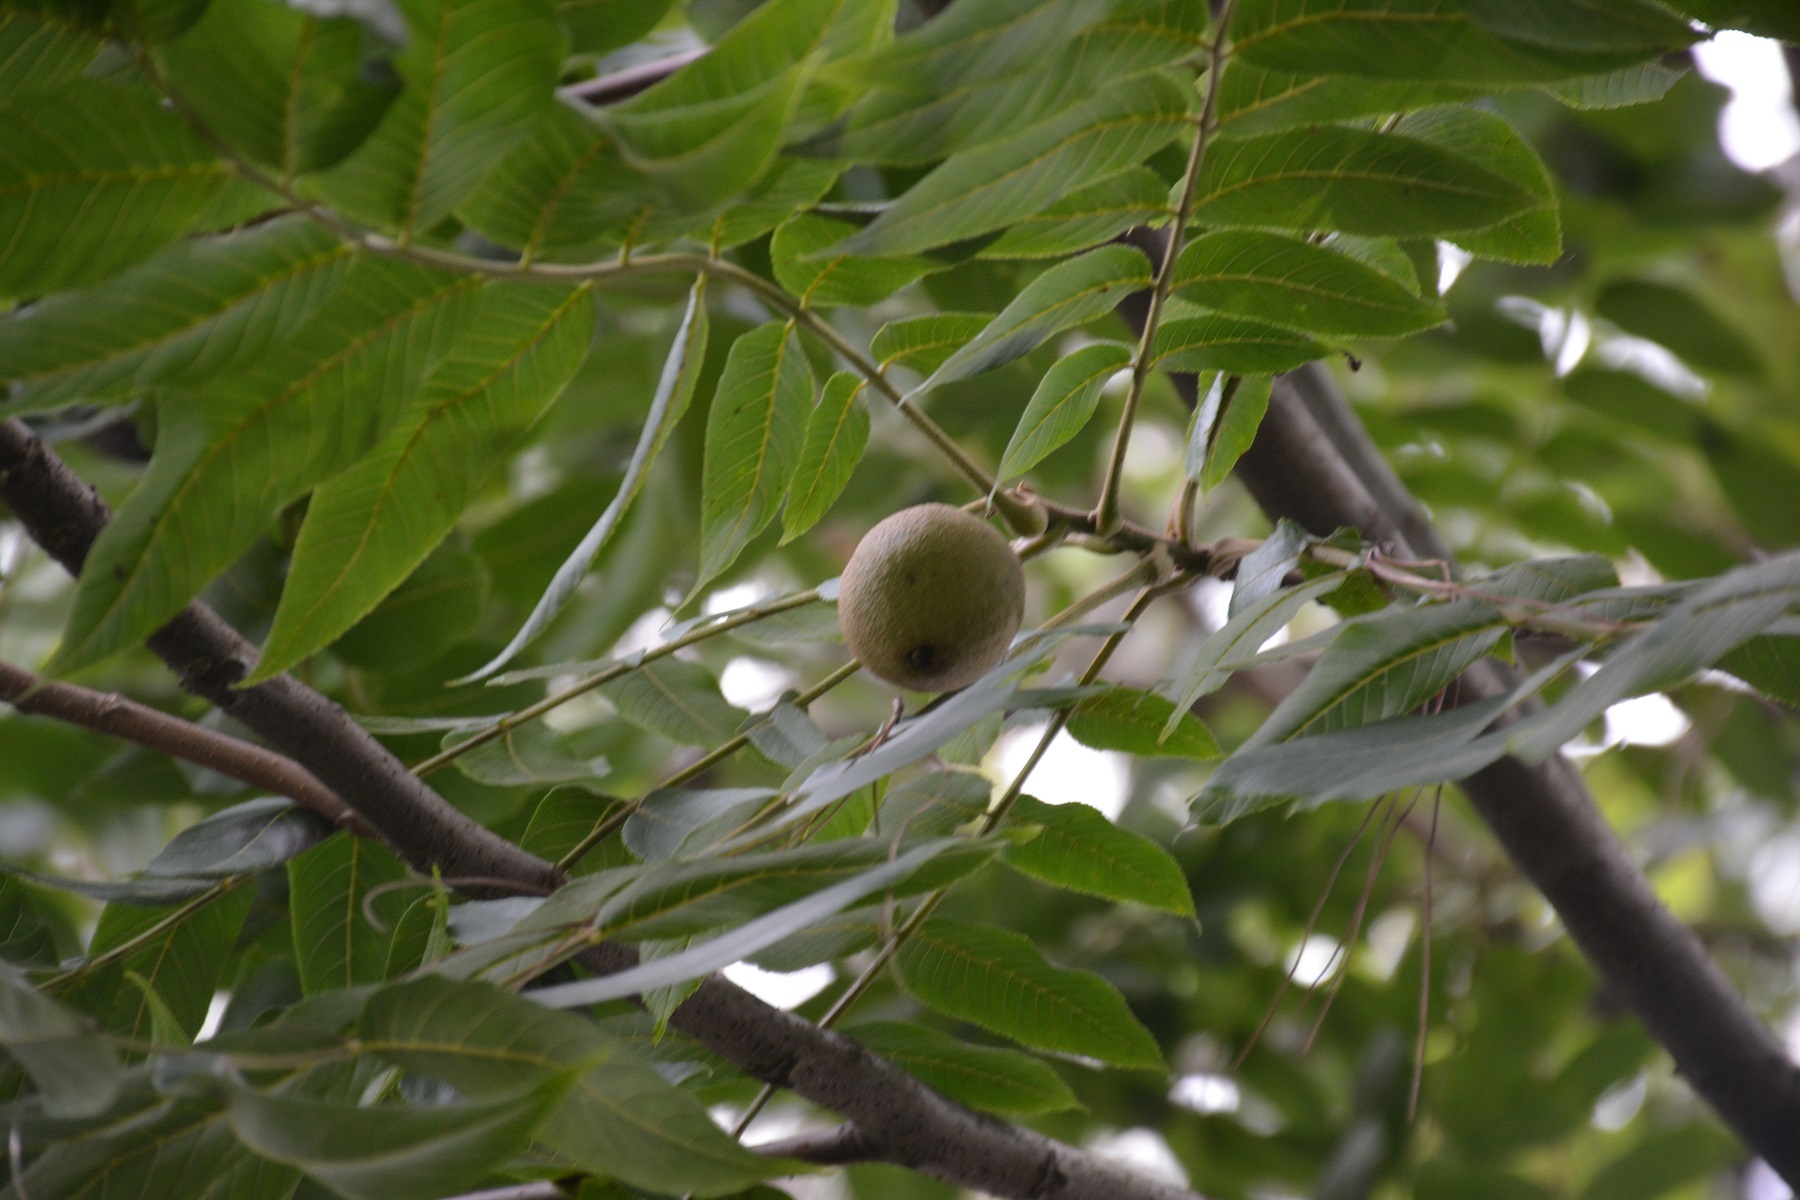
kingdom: Plantae
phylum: Tracheophyta
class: Magnoliopsida
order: Fagales
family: Juglandaceae
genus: Juglans
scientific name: Juglans olanchana
